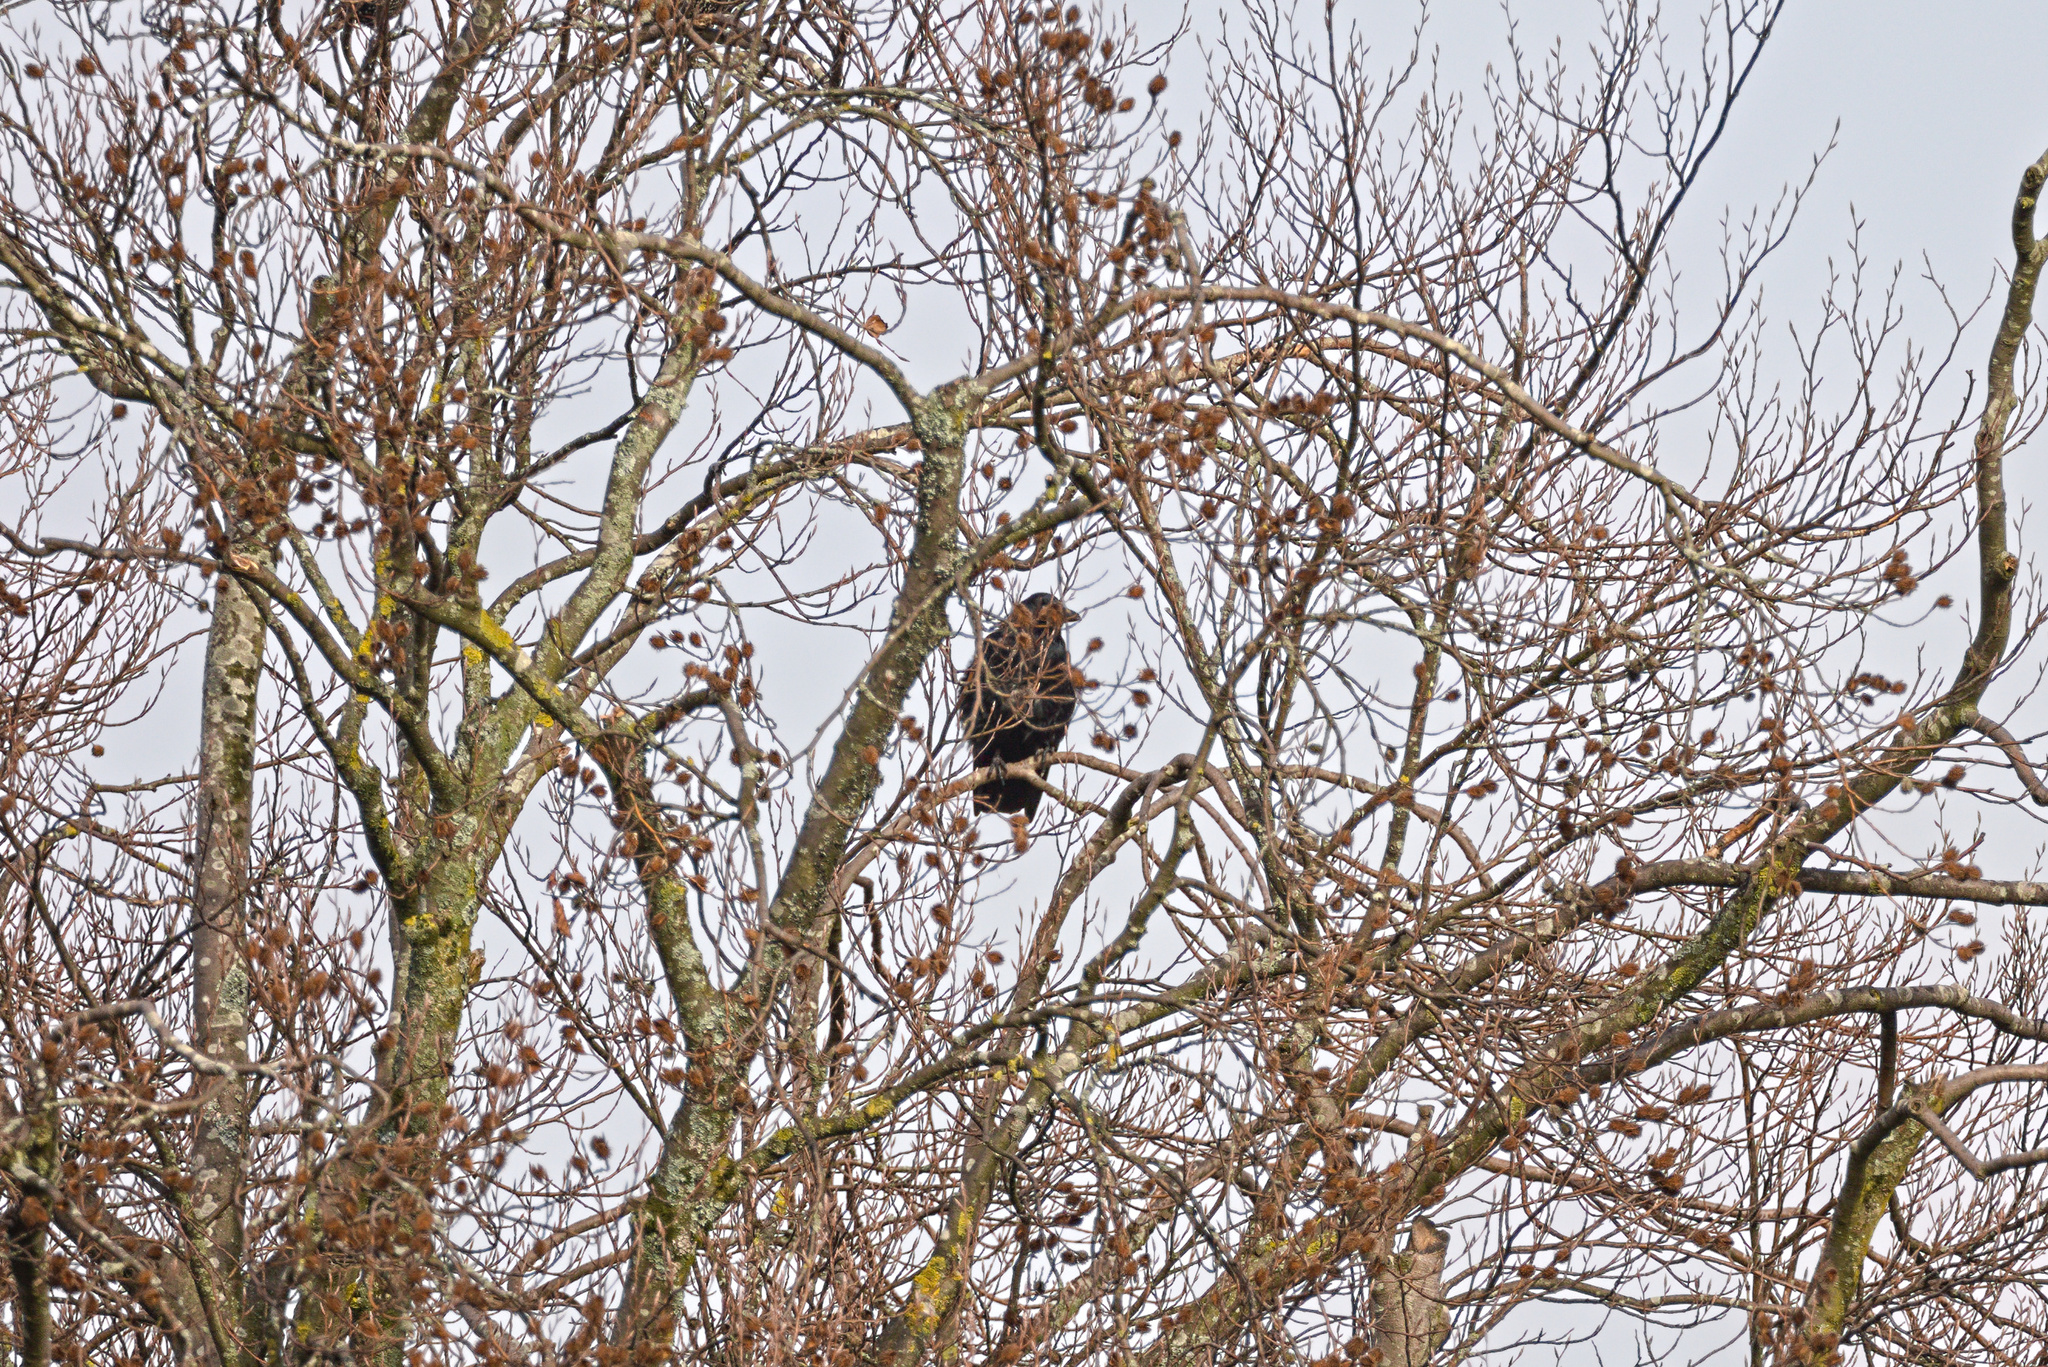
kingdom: Animalia
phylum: Chordata
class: Aves
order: Passeriformes
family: Corvidae
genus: Corvus
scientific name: Corvus corax
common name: Common raven
